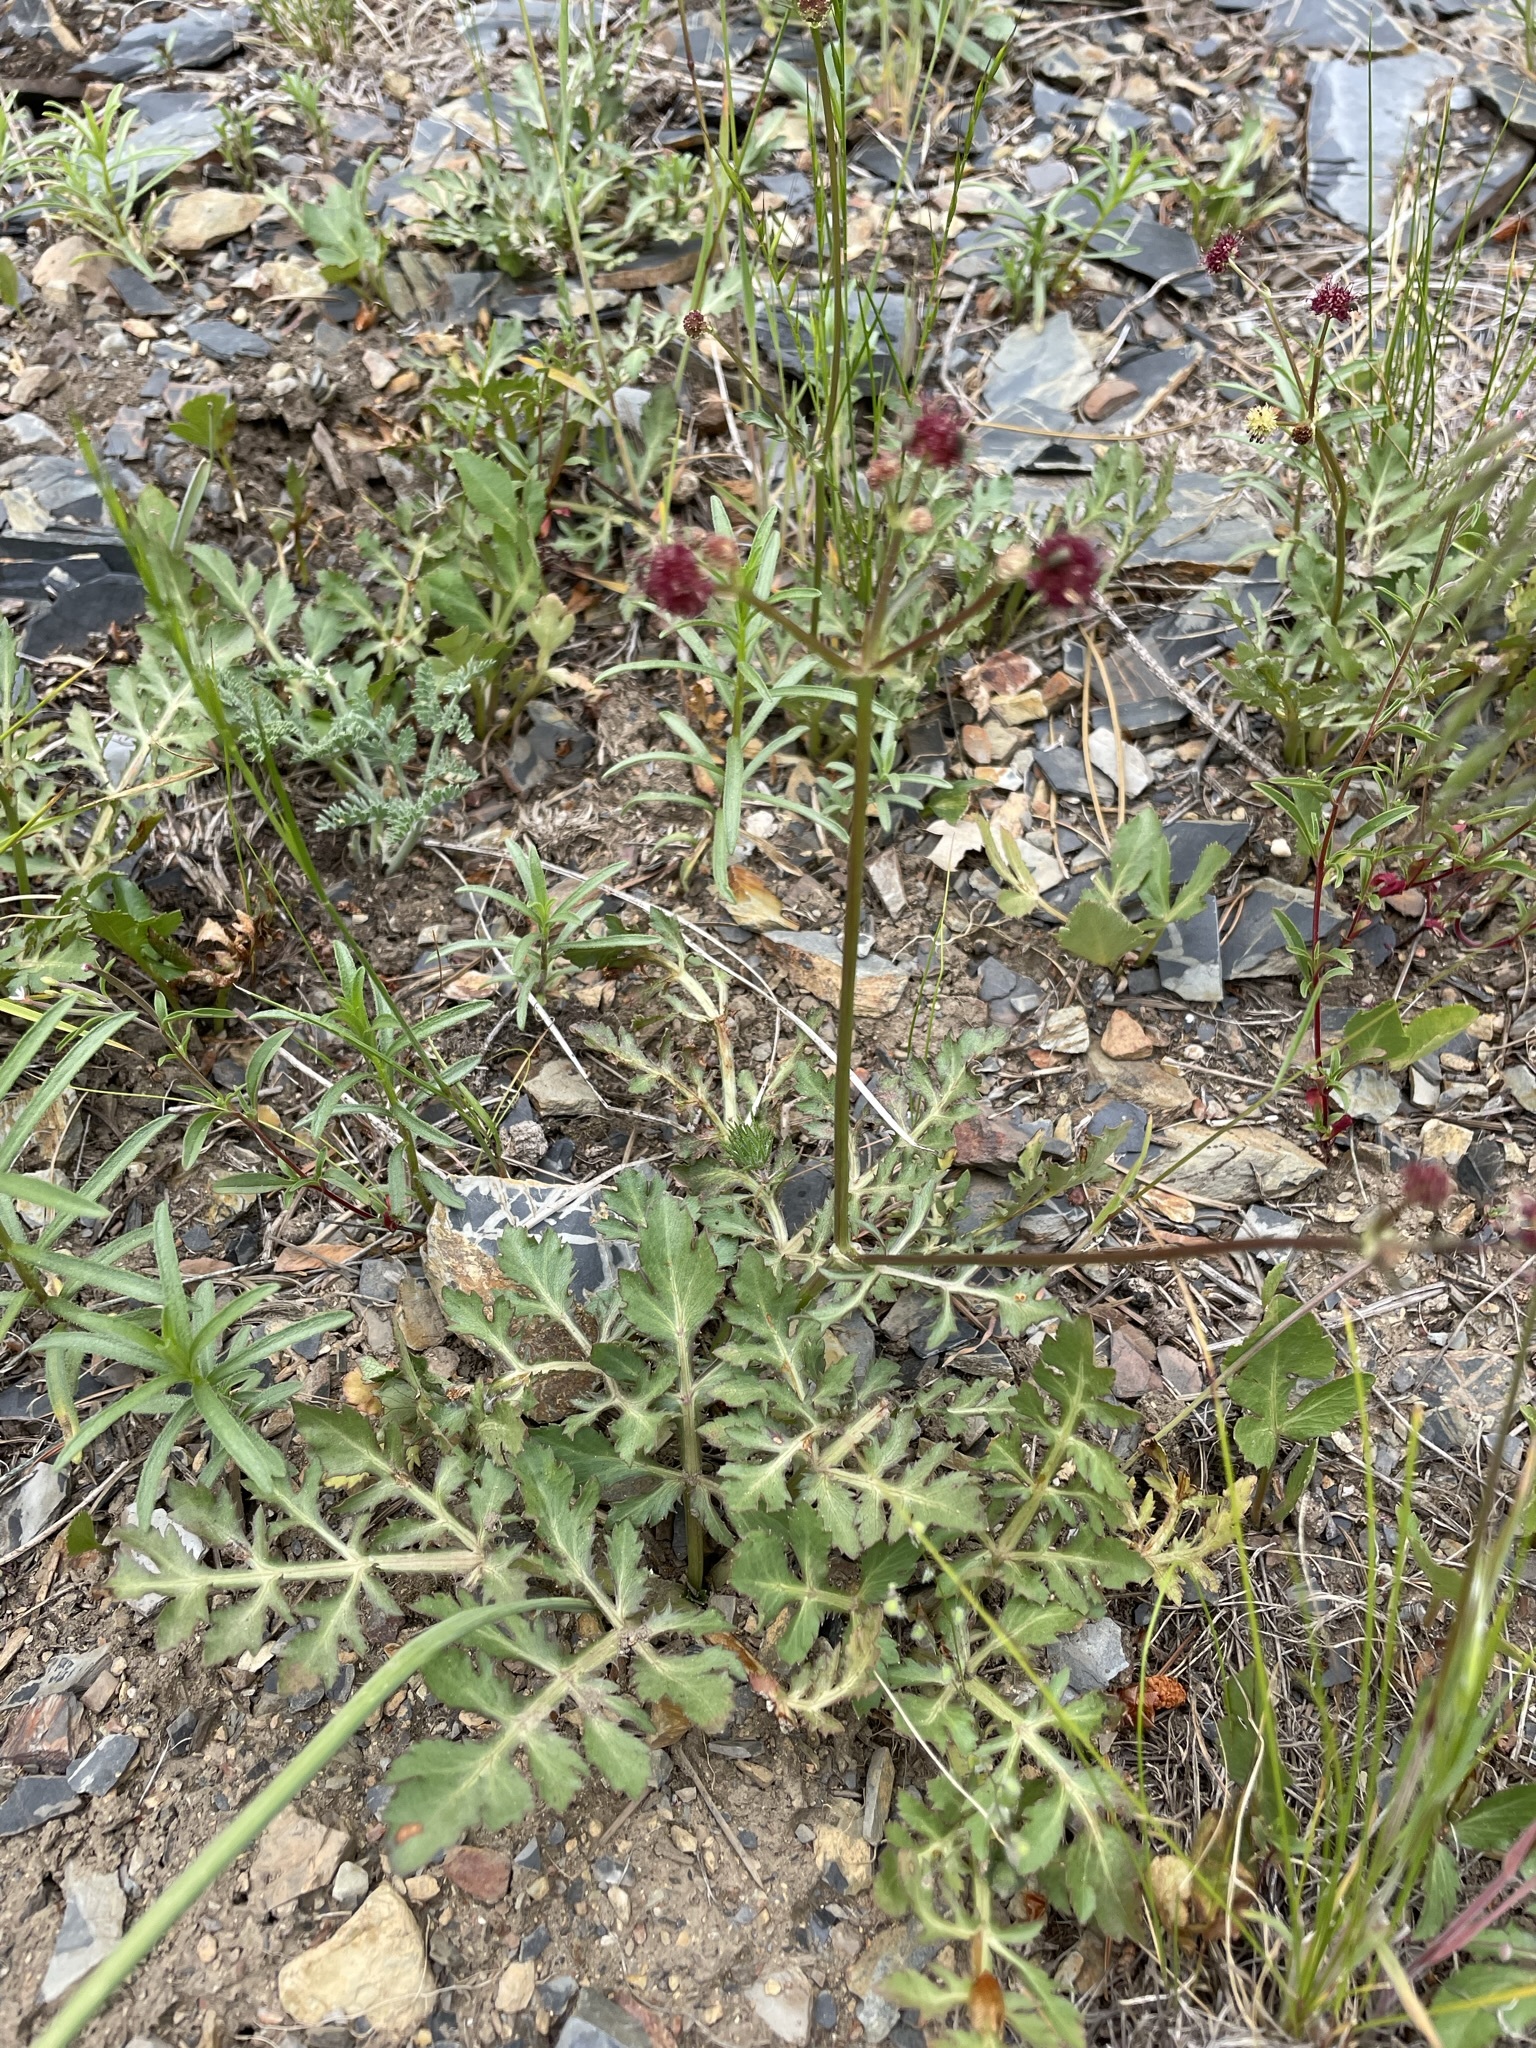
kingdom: Plantae
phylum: Tracheophyta
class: Magnoliopsida
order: Apiales
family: Apiaceae
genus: Sanicula
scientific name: Sanicula bipinnatifida
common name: Shoe-buttons
